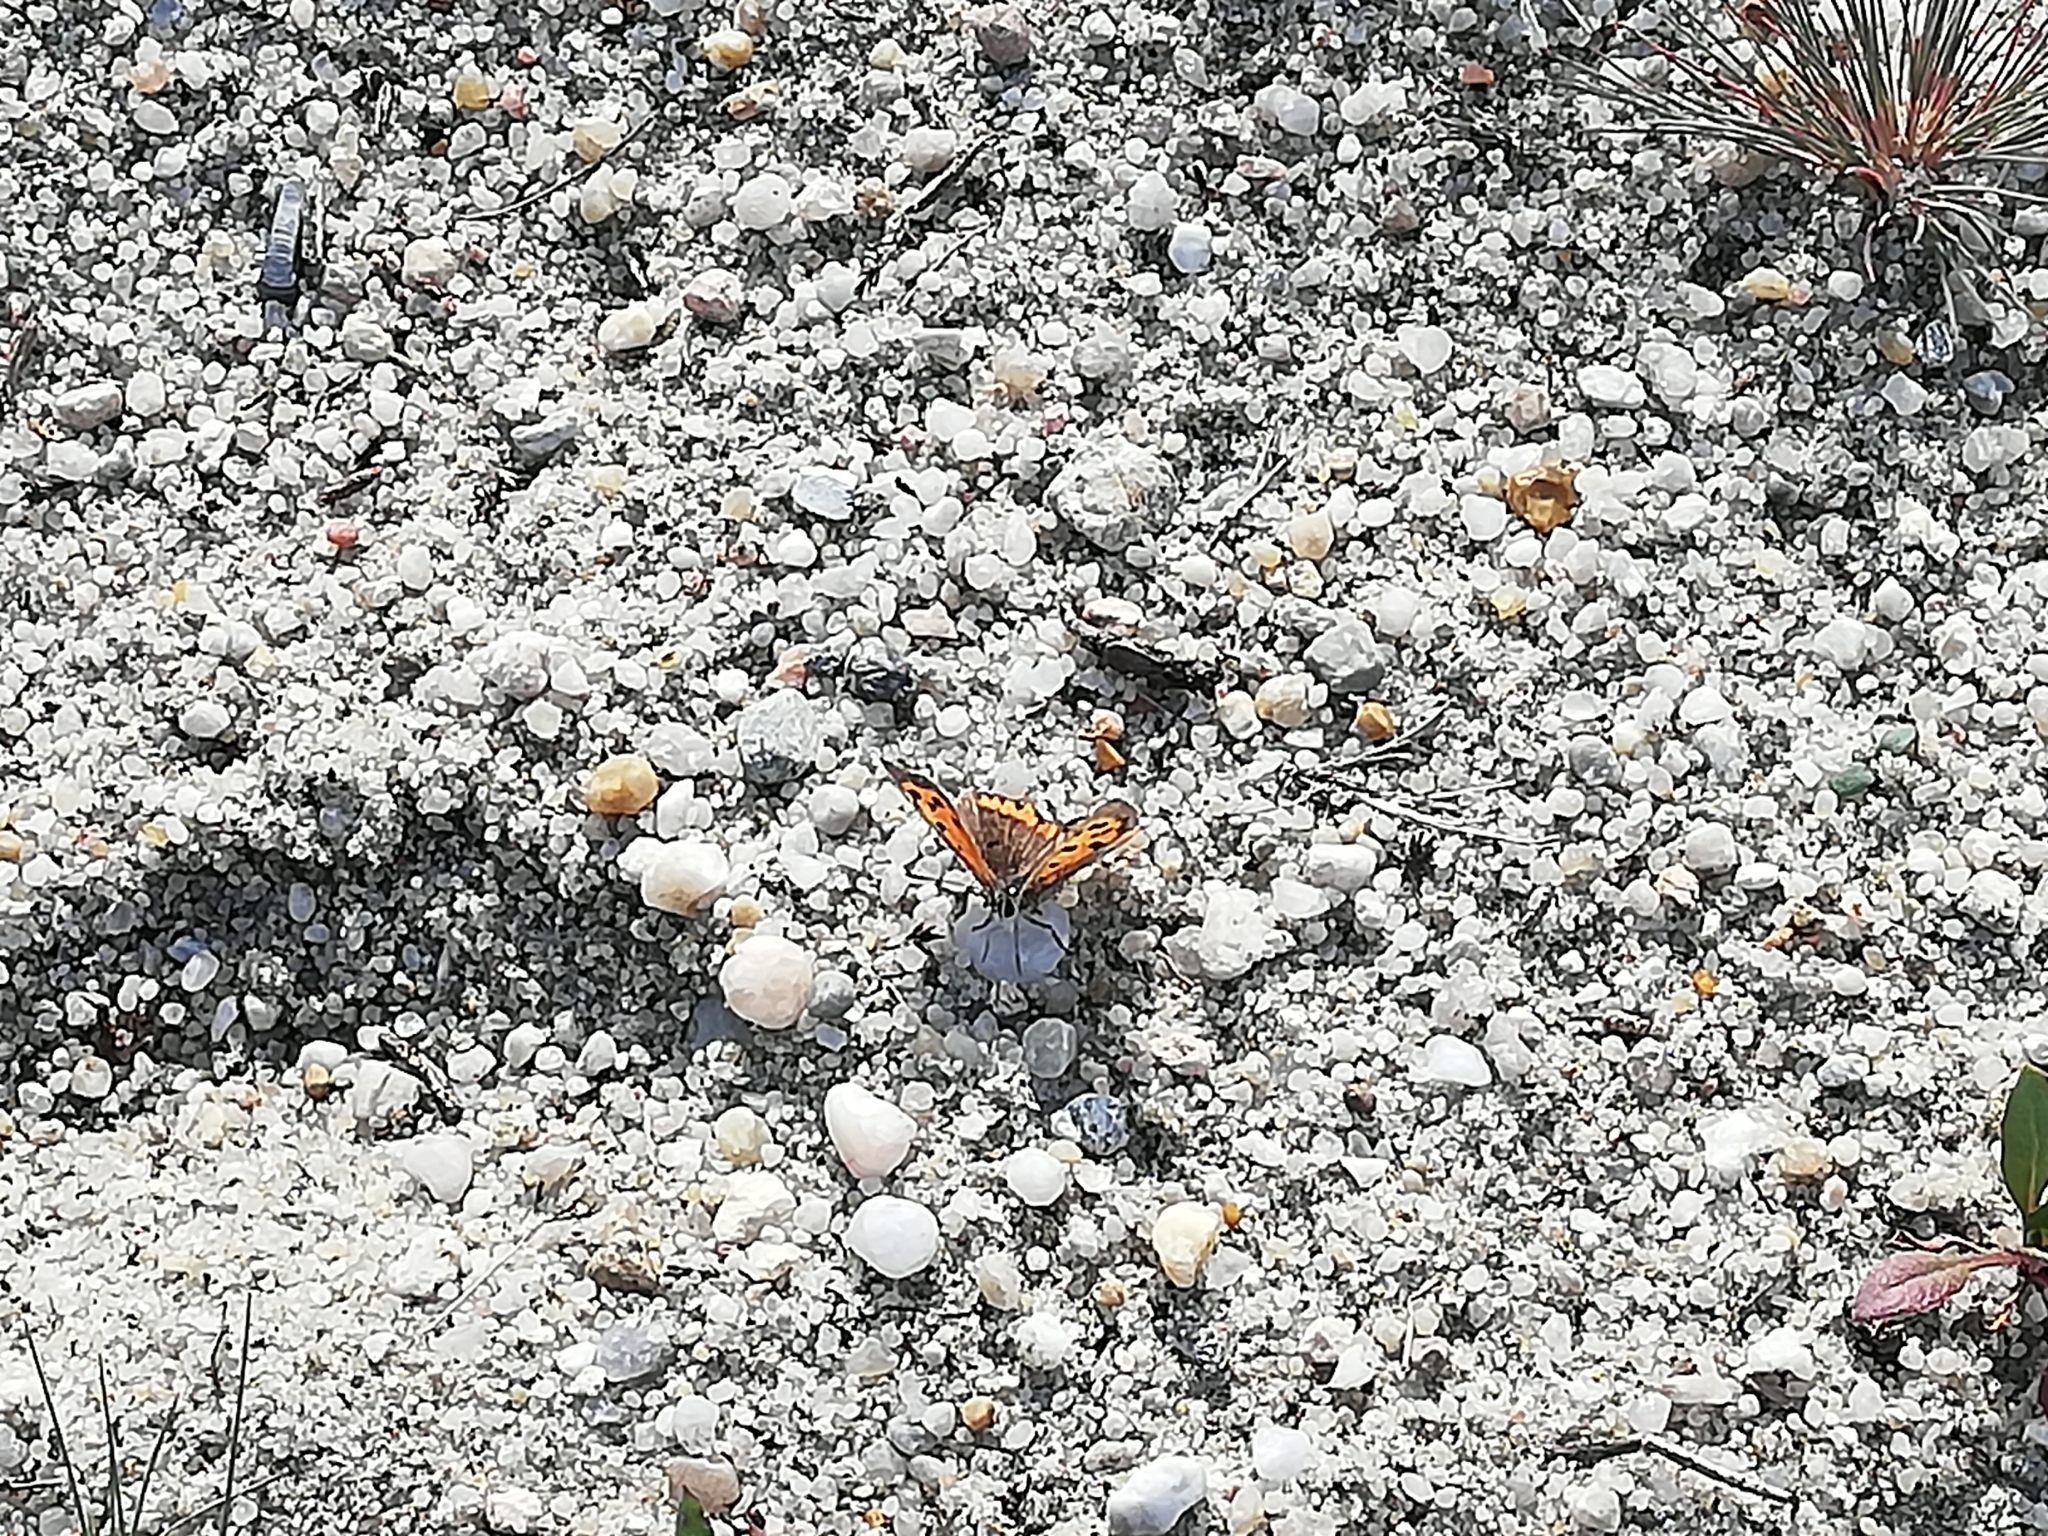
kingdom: Animalia
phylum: Arthropoda
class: Insecta
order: Lepidoptera
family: Lycaenidae
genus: Lycaena
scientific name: Lycaena phlaeas
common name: Small copper
